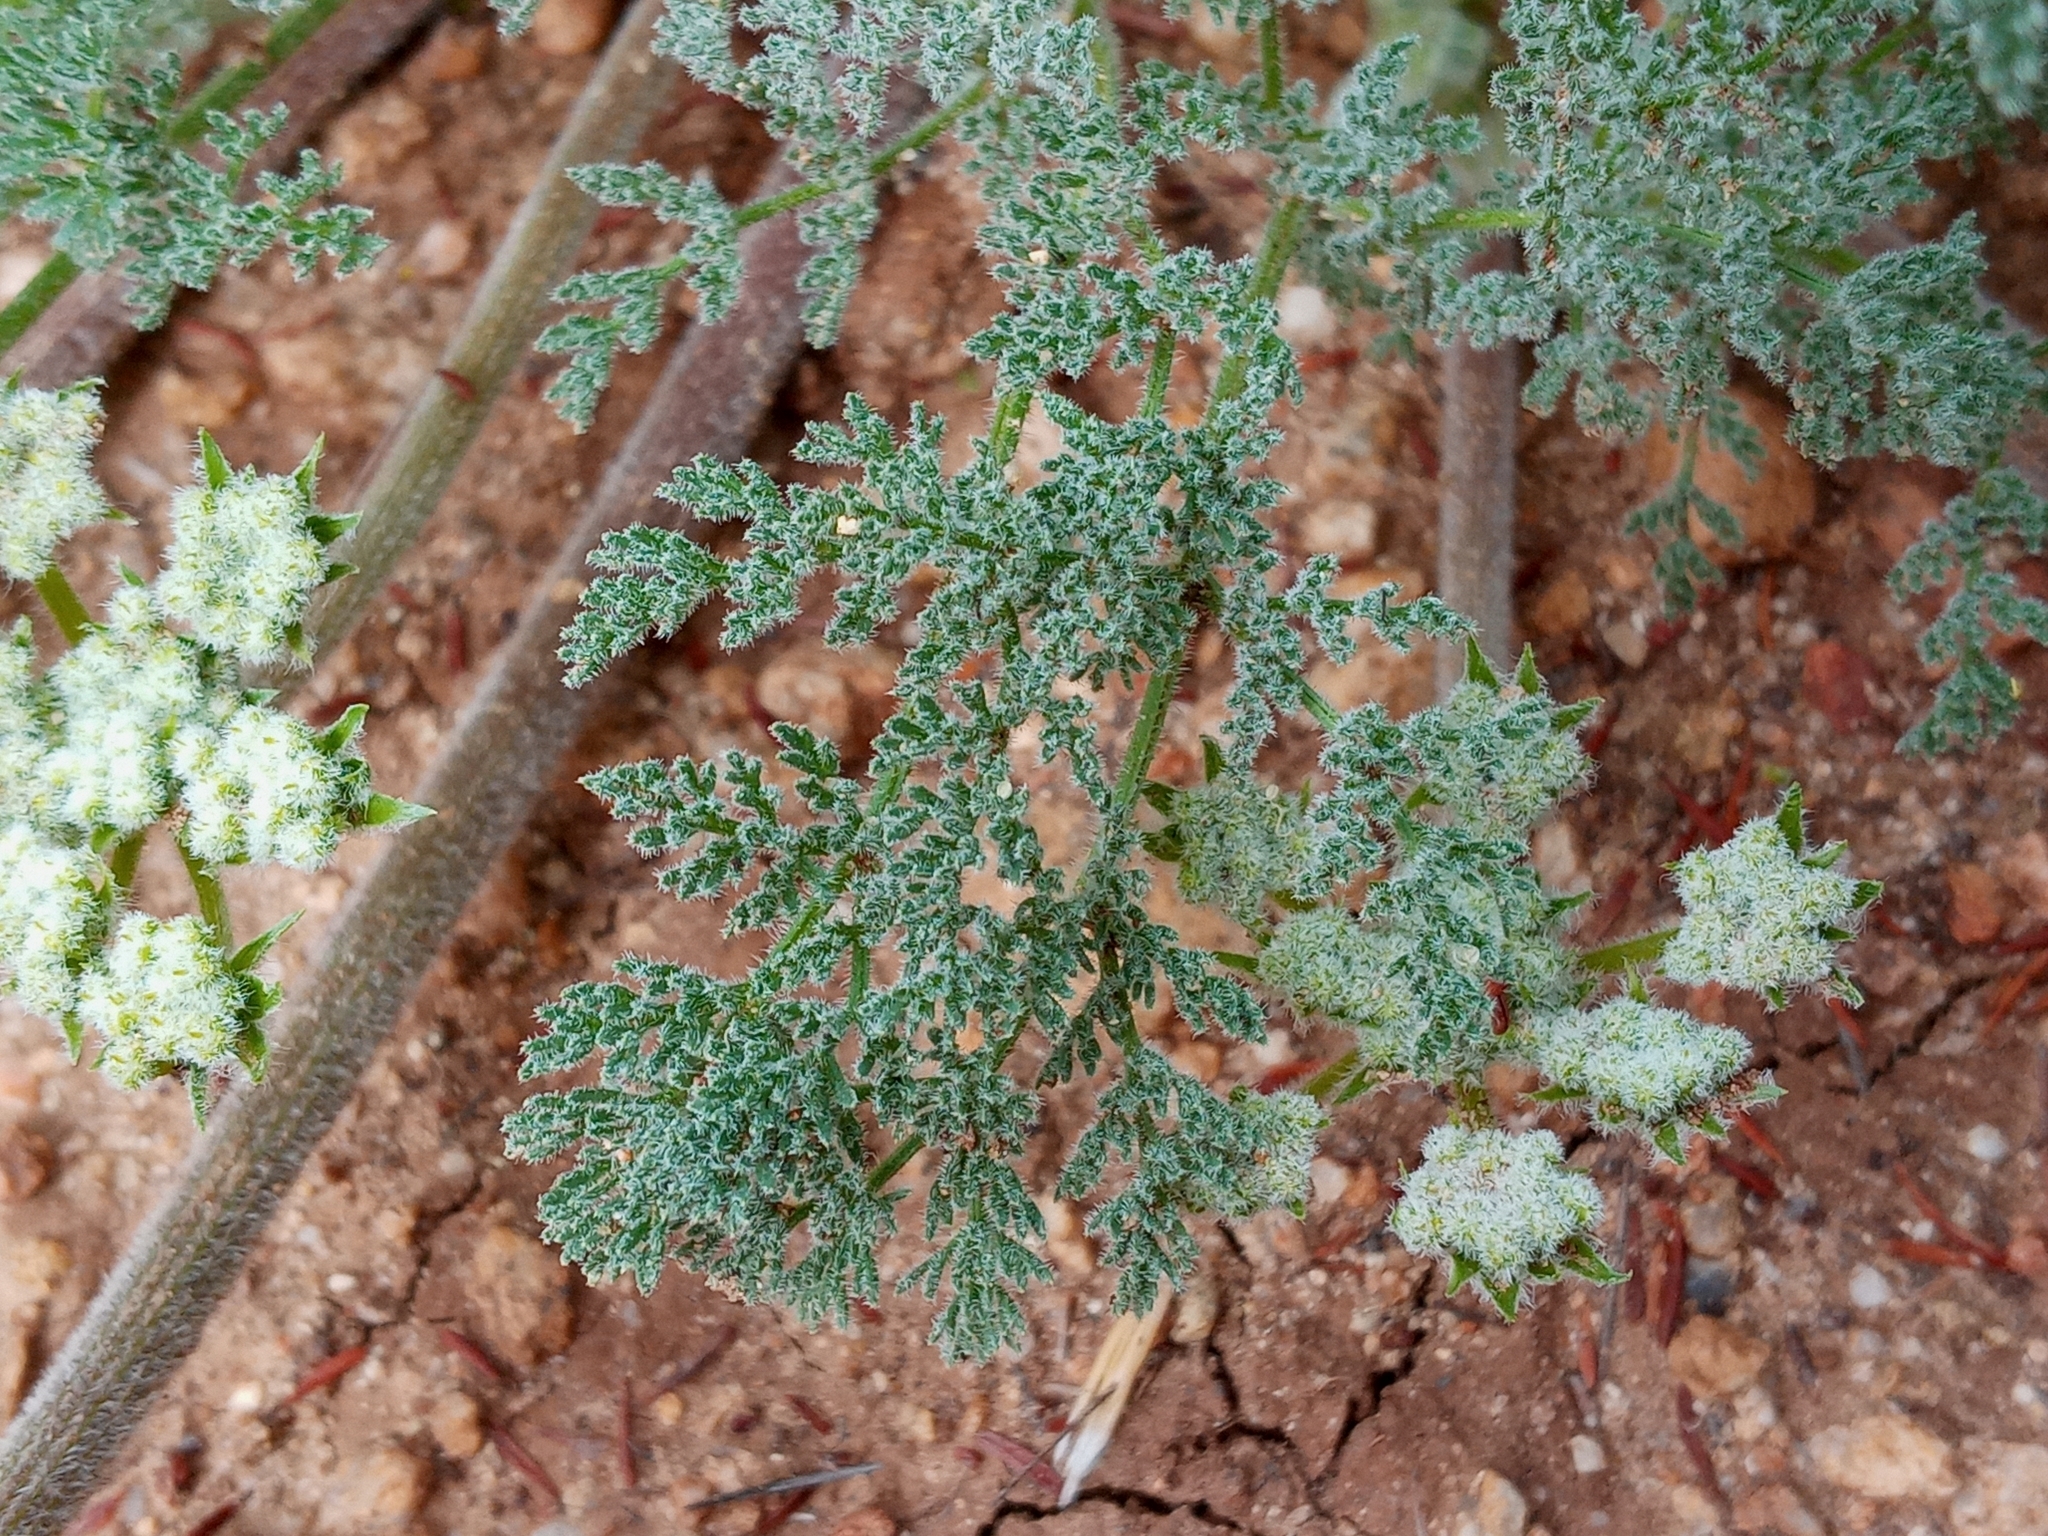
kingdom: Plantae
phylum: Tracheophyta
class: Magnoliopsida
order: Apiales
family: Apiaceae
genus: Lomatium
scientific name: Lomatium dasycarpum
